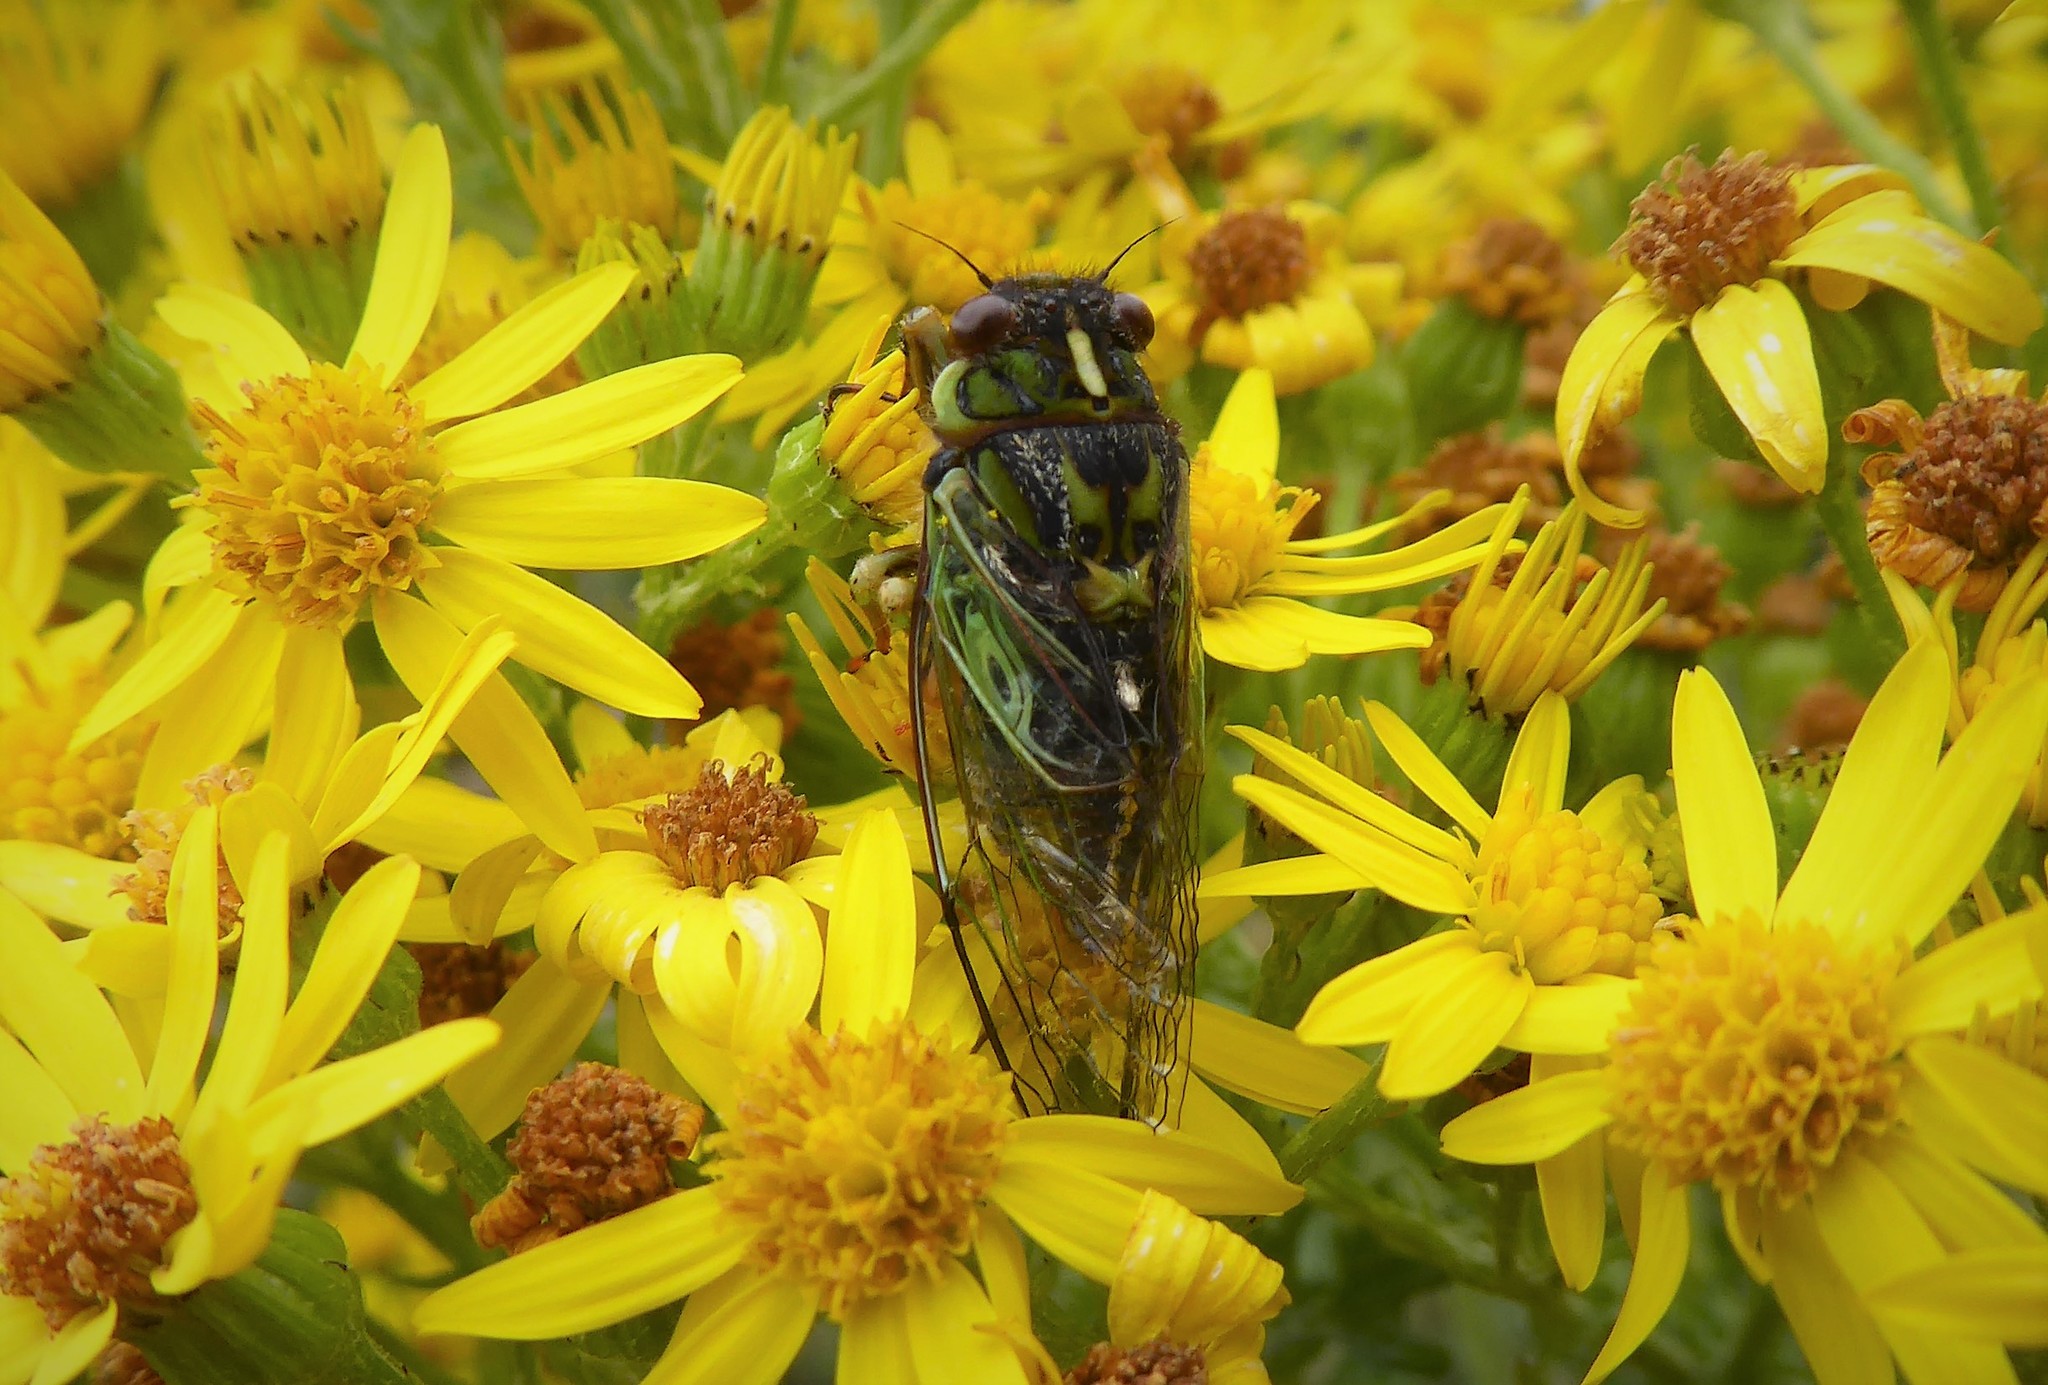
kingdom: Animalia
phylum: Arthropoda
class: Insecta
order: Hemiptera
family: Cicadidae
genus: Kikihia
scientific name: Kikihia rosea
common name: Murihiku cicada
